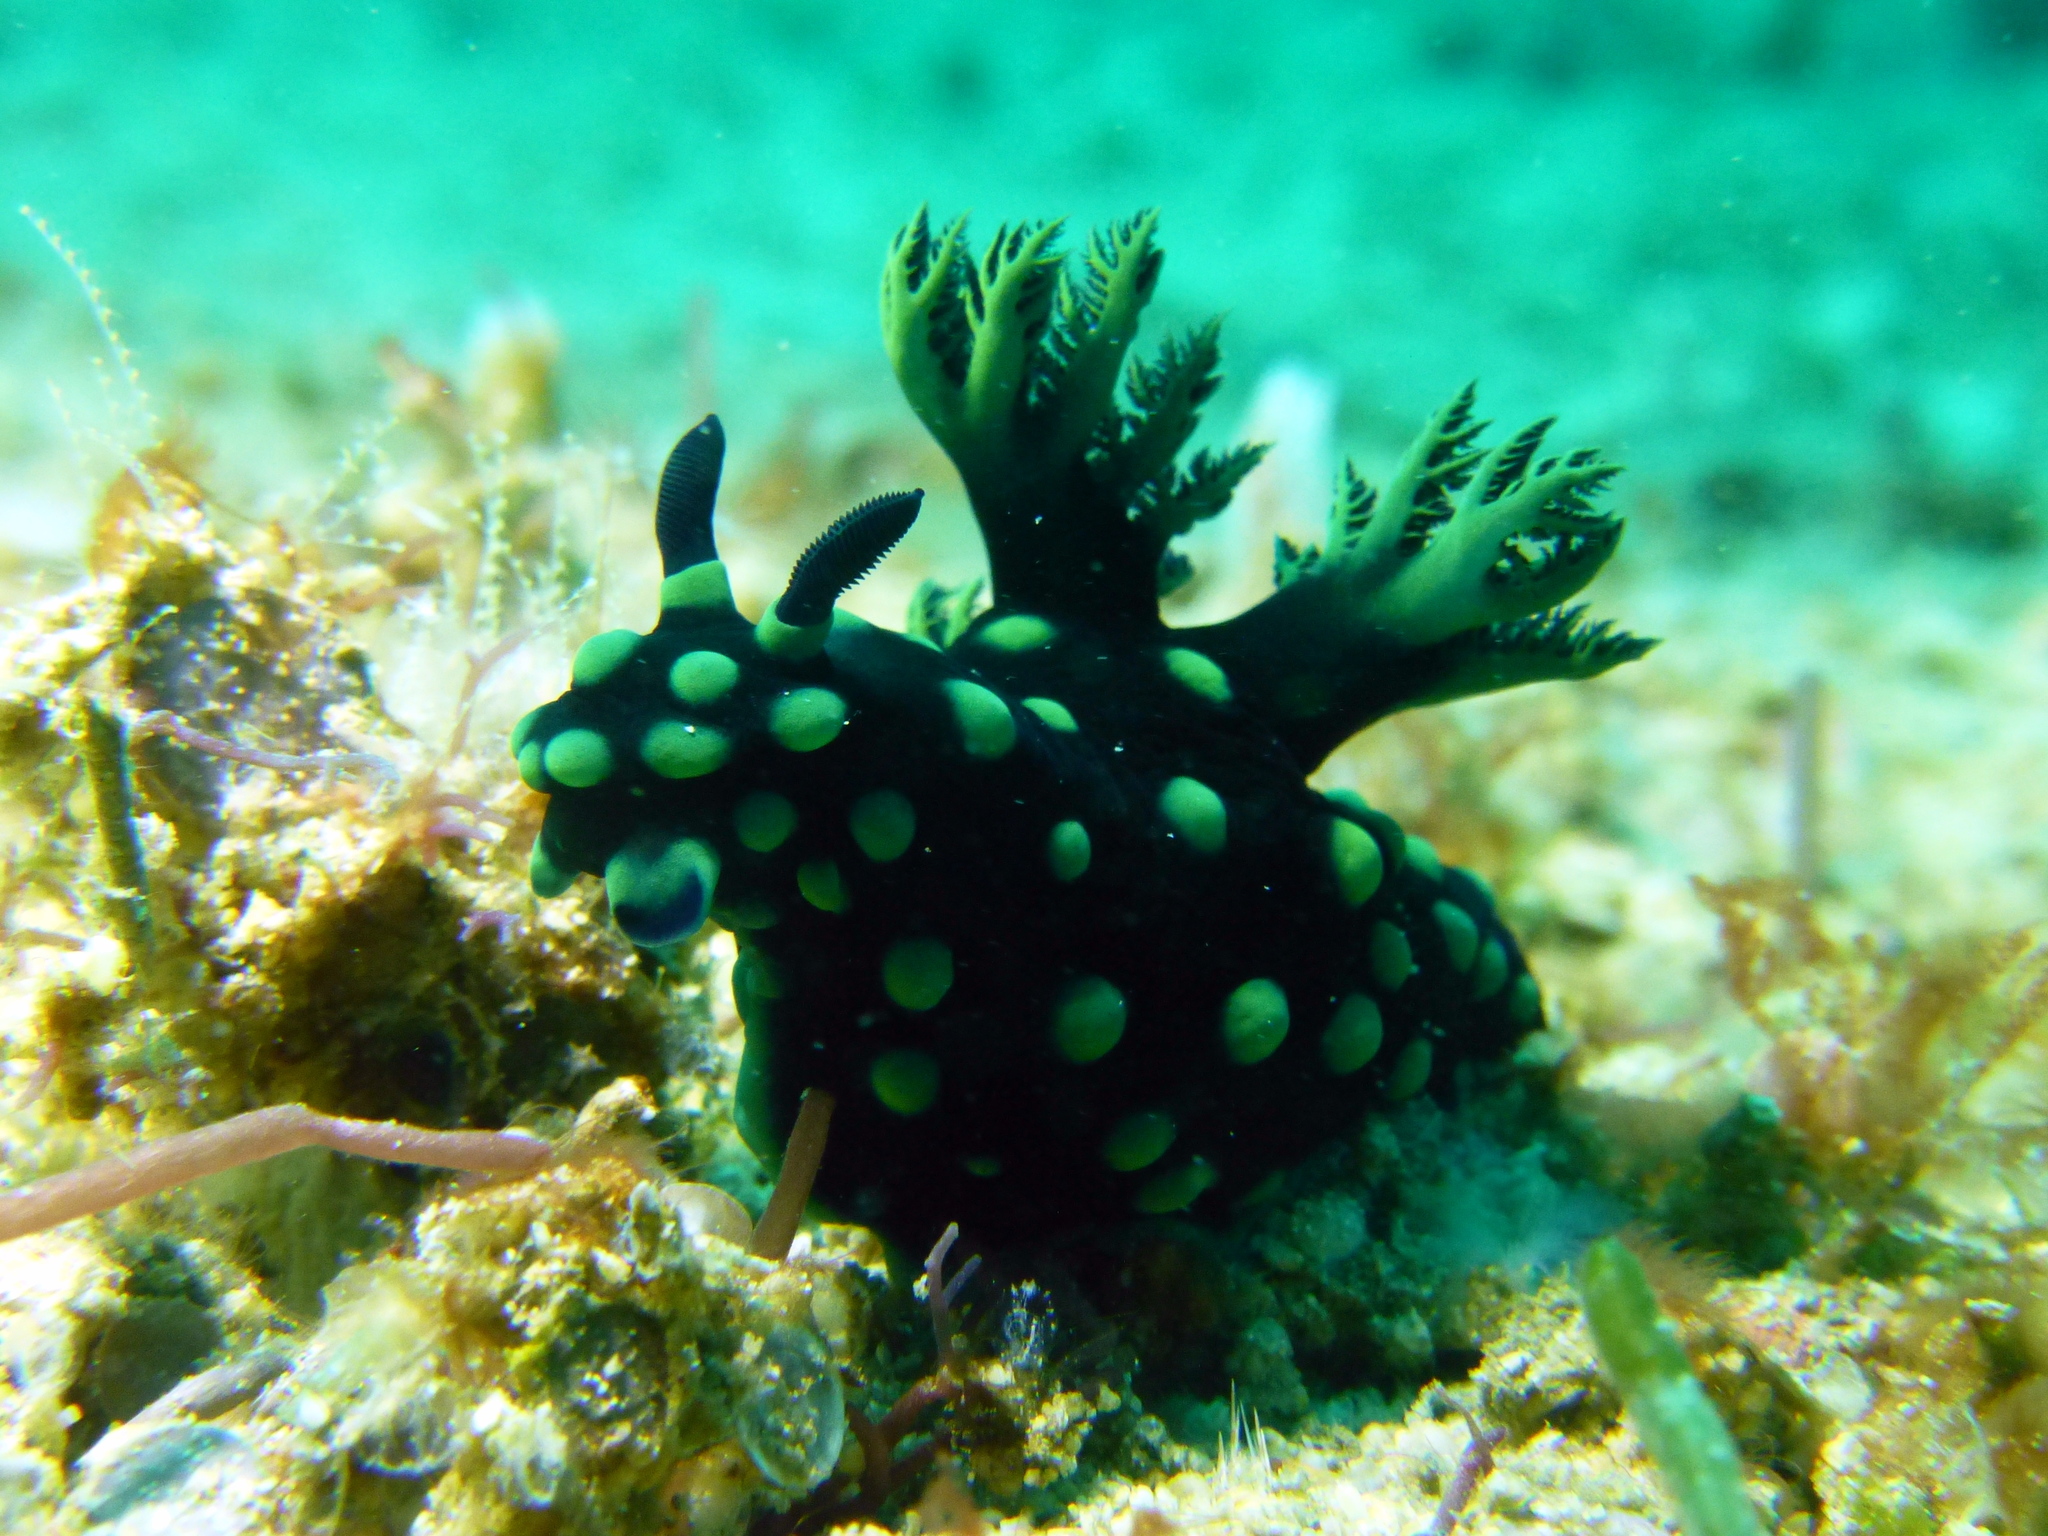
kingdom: Animalia
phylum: Mollusca
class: Gastropoda
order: Nudibranchia
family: Polyceridae
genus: Nembrotha
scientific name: Nembrotha cristata
